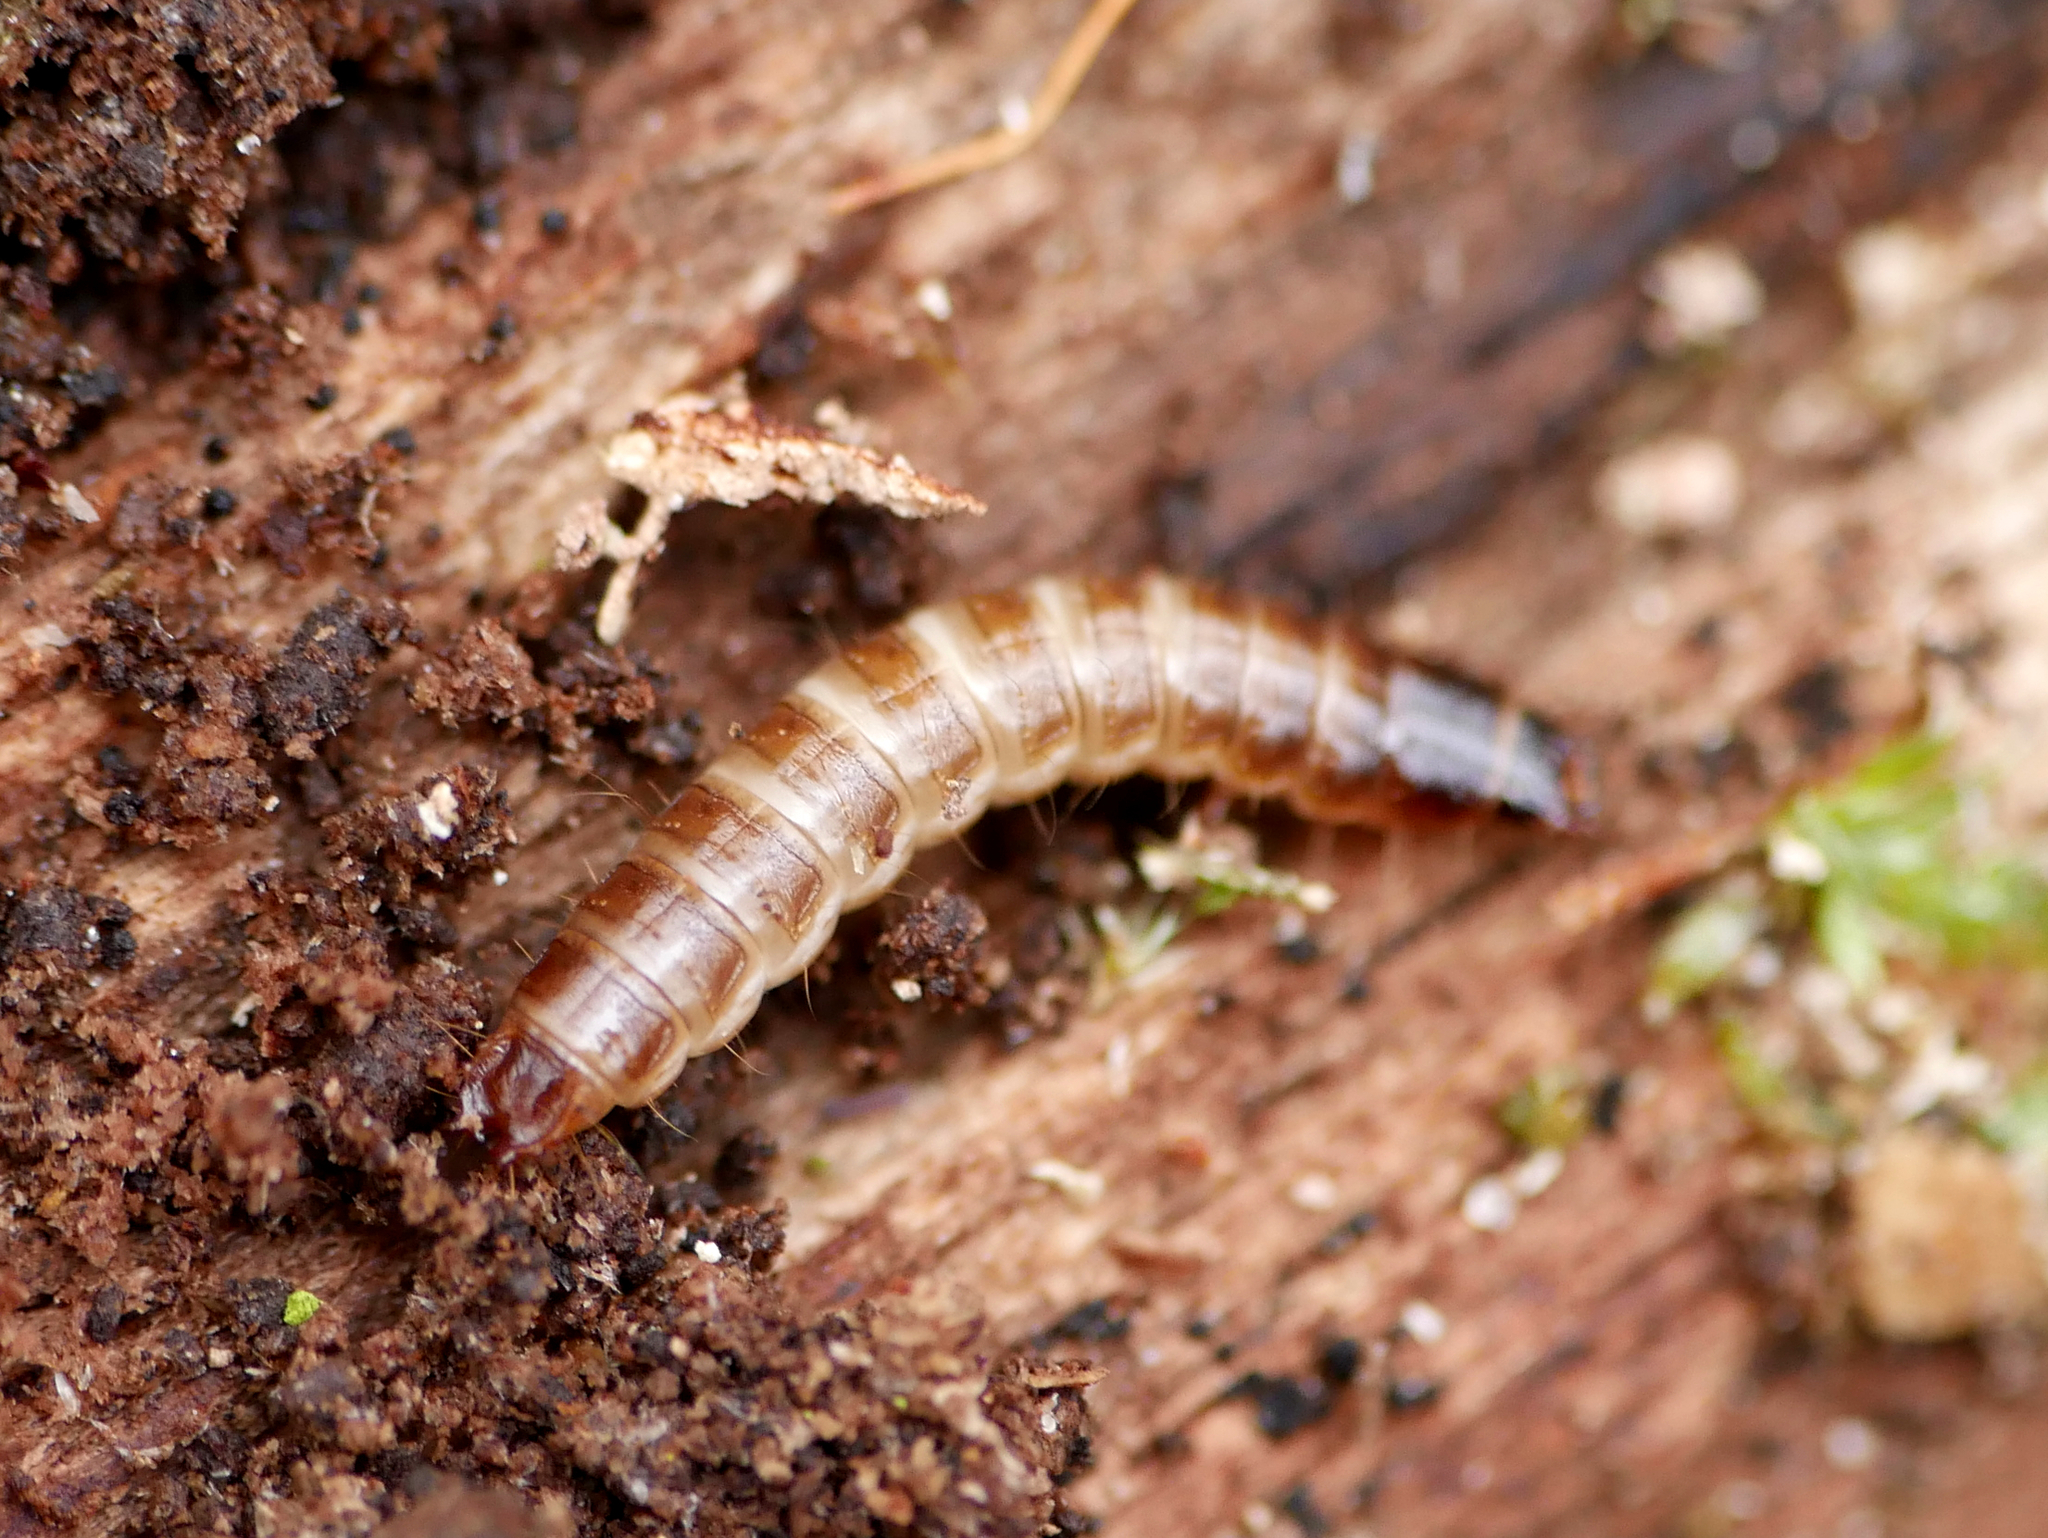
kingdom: Animalia
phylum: Arthropoda
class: Insecta
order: Coleoptera
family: Elateridae
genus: Denticollis
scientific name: Denticollis linearis
